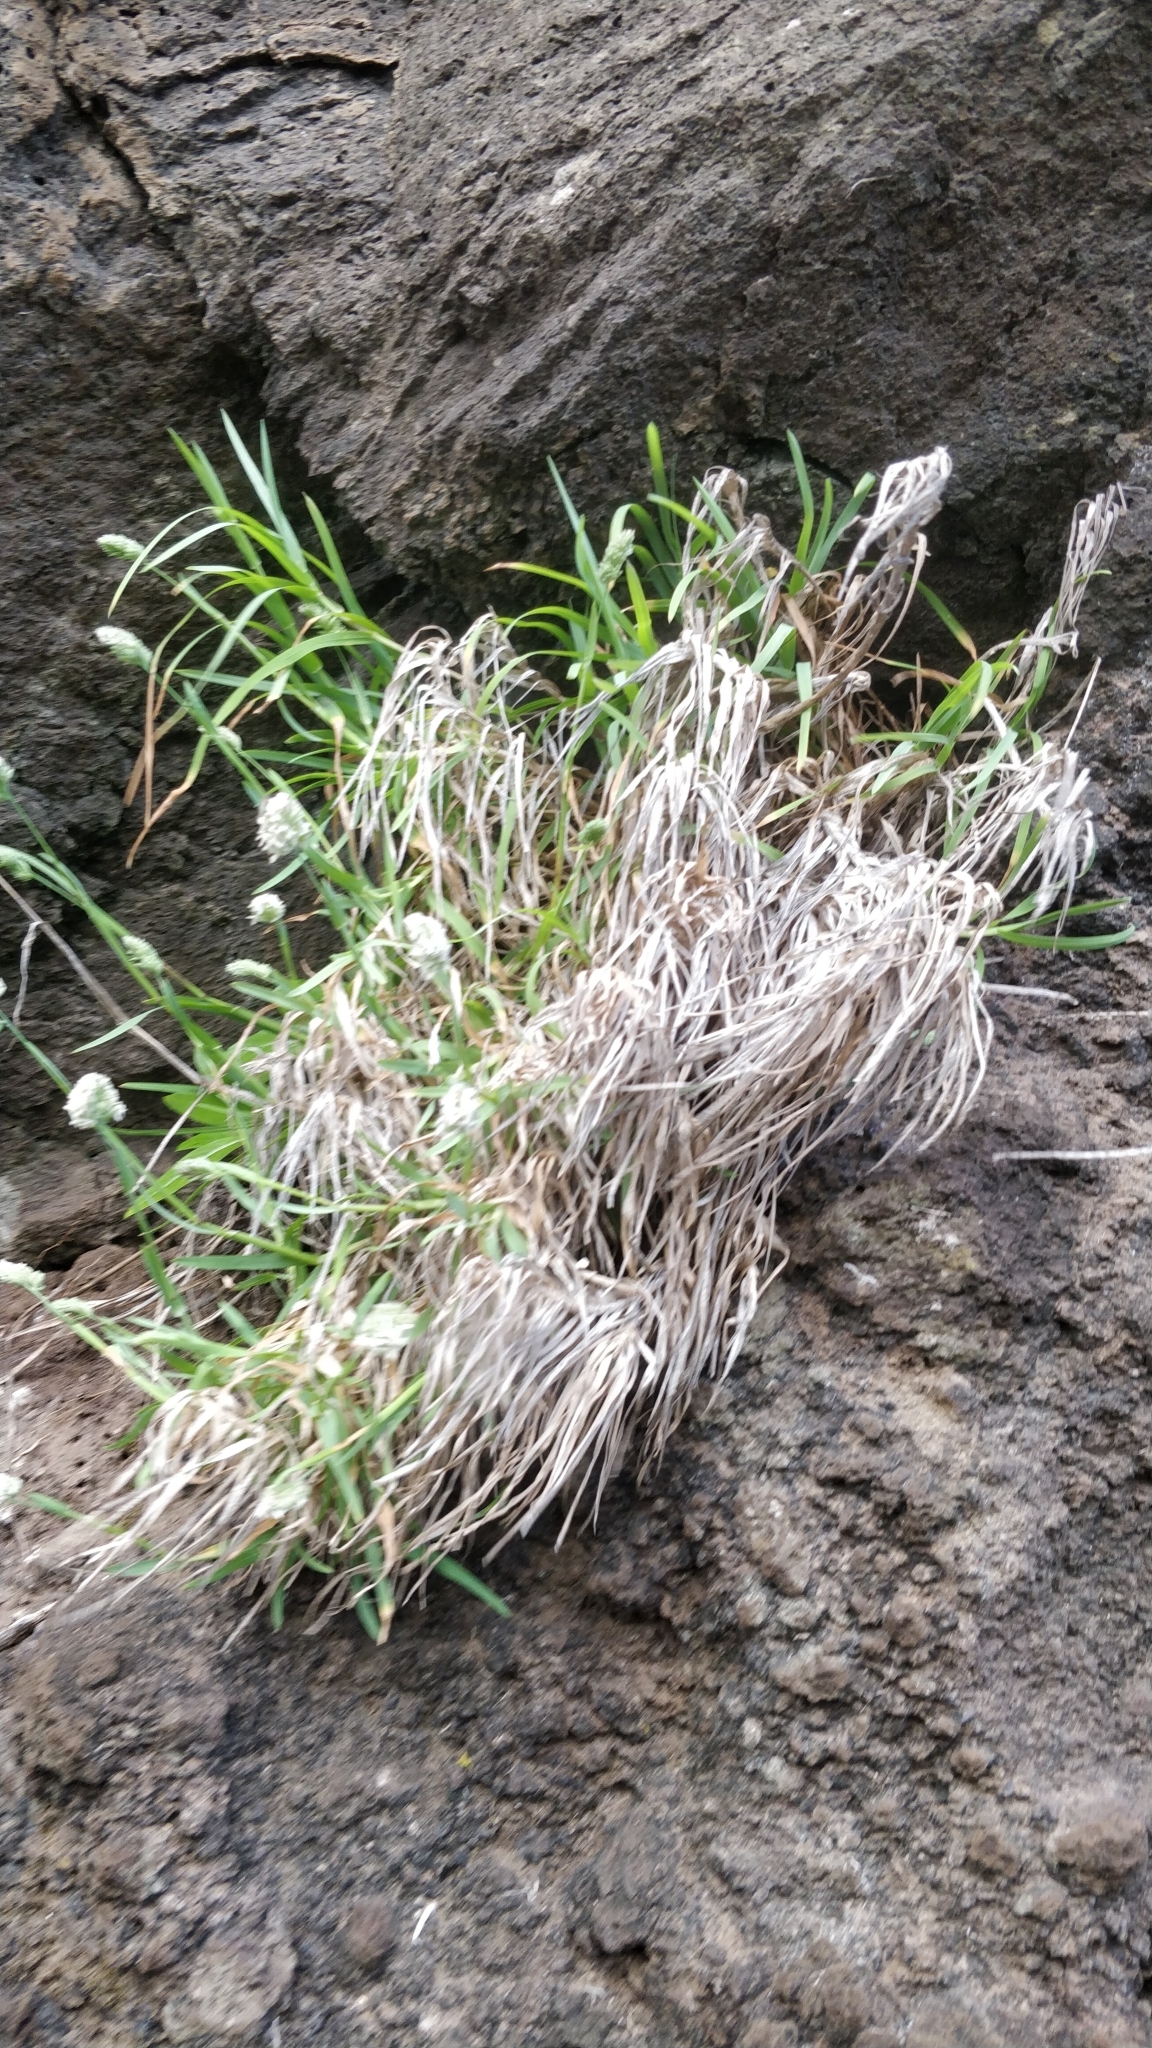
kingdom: Plantae
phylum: Tracheophyta
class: Liliopsida
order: Poales
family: Poaceae
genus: Dactylis
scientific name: Dactylis glomerata
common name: Orchardgrass
